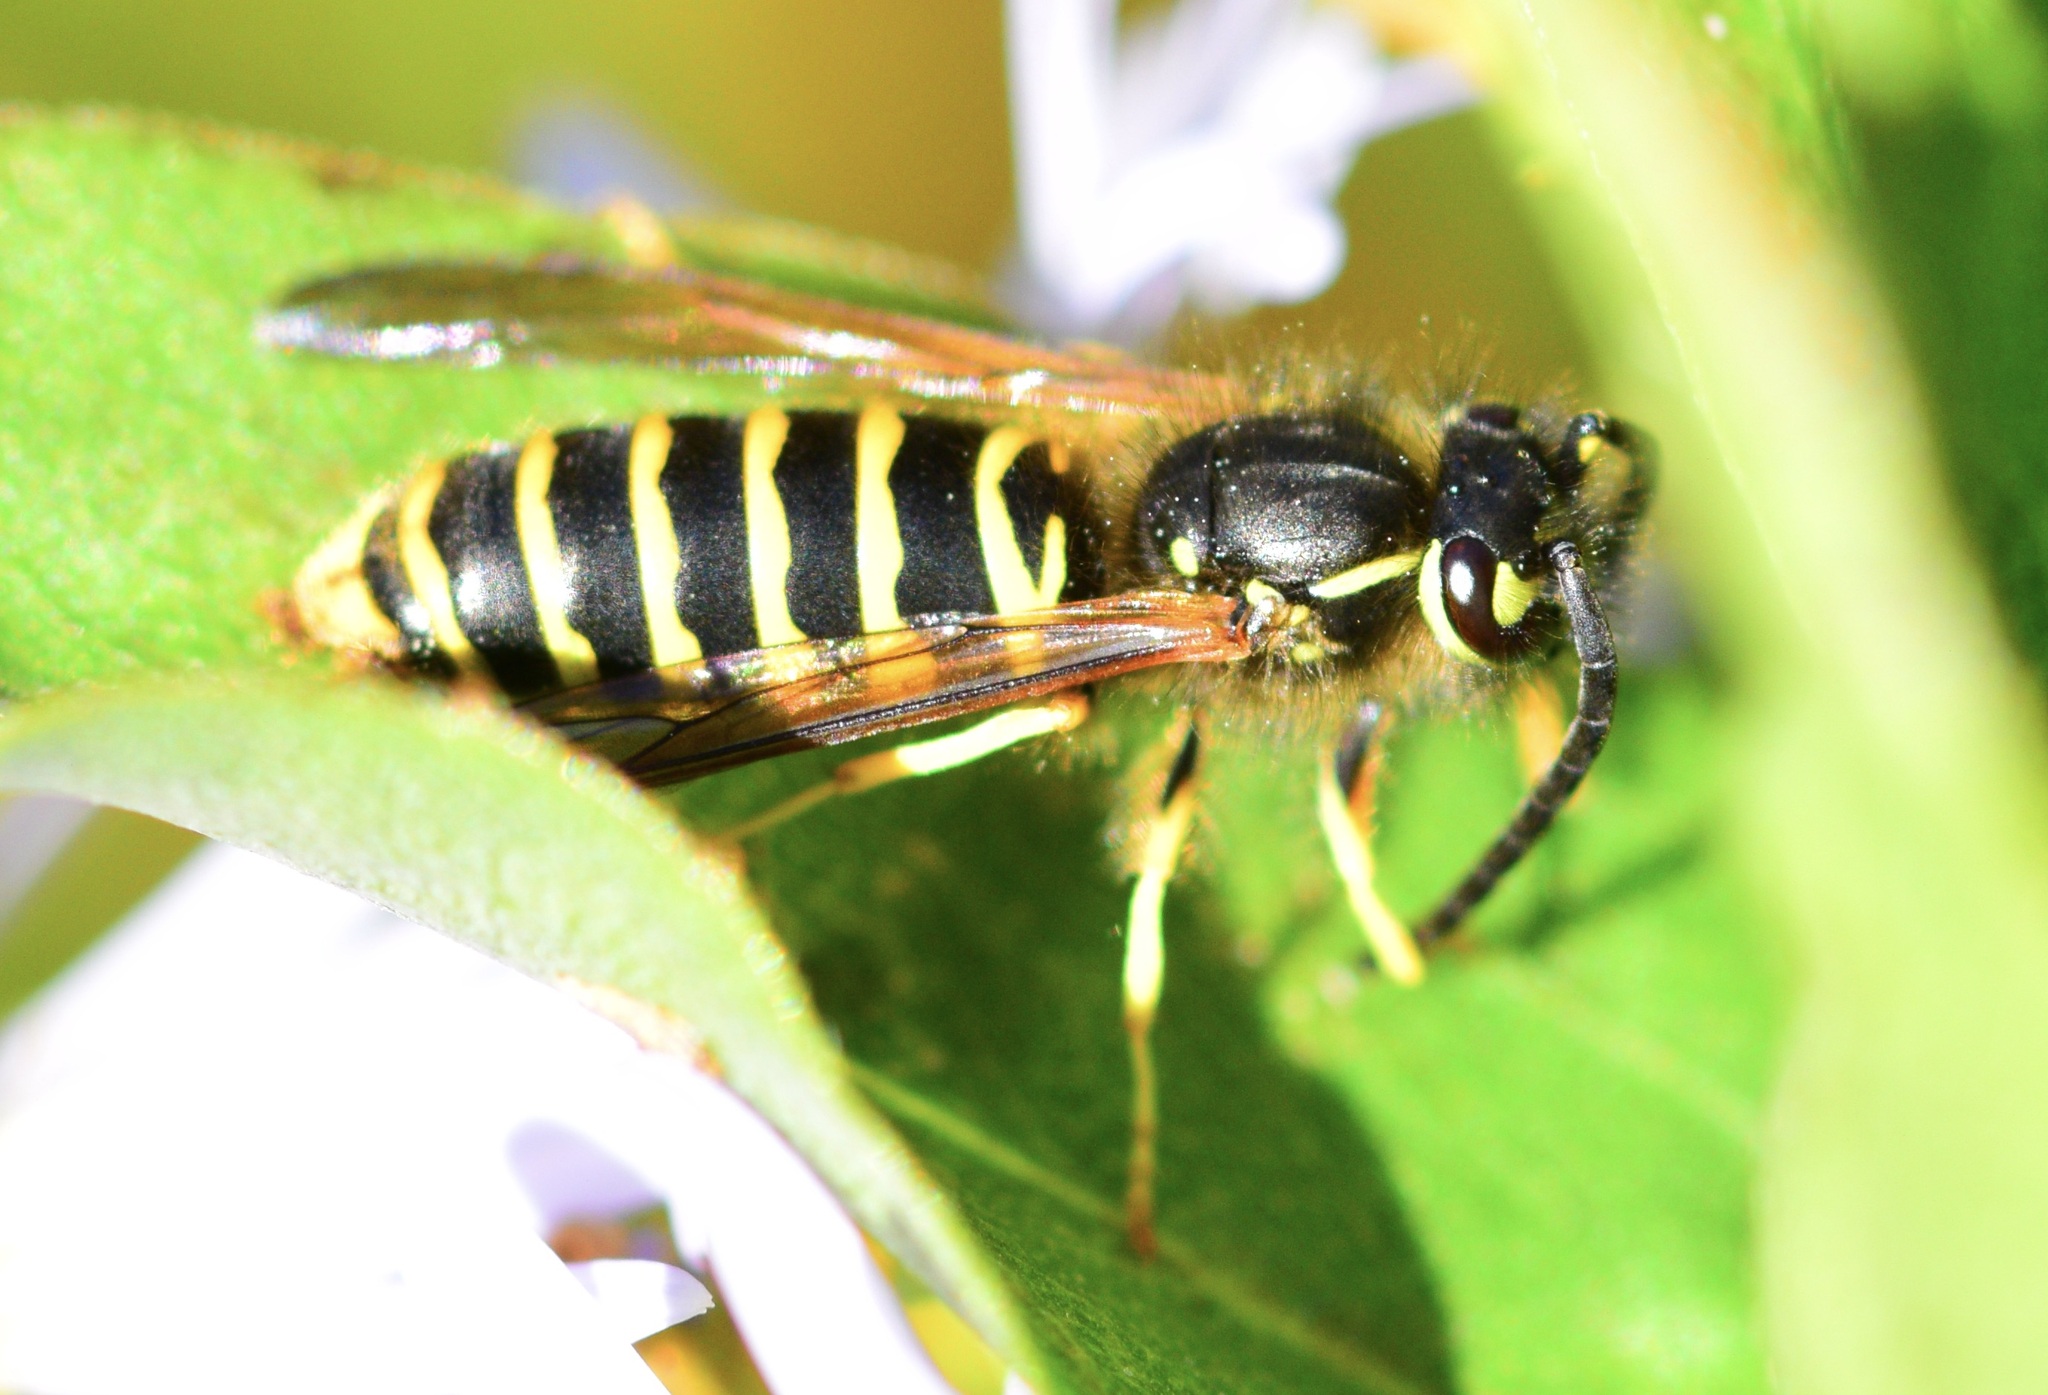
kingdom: Animalia
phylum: Arthropoda
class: Insecta
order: Hymenoptera
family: Vespidae
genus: Vespula
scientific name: Vespula maculifrons
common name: Eastern yellowjacket
